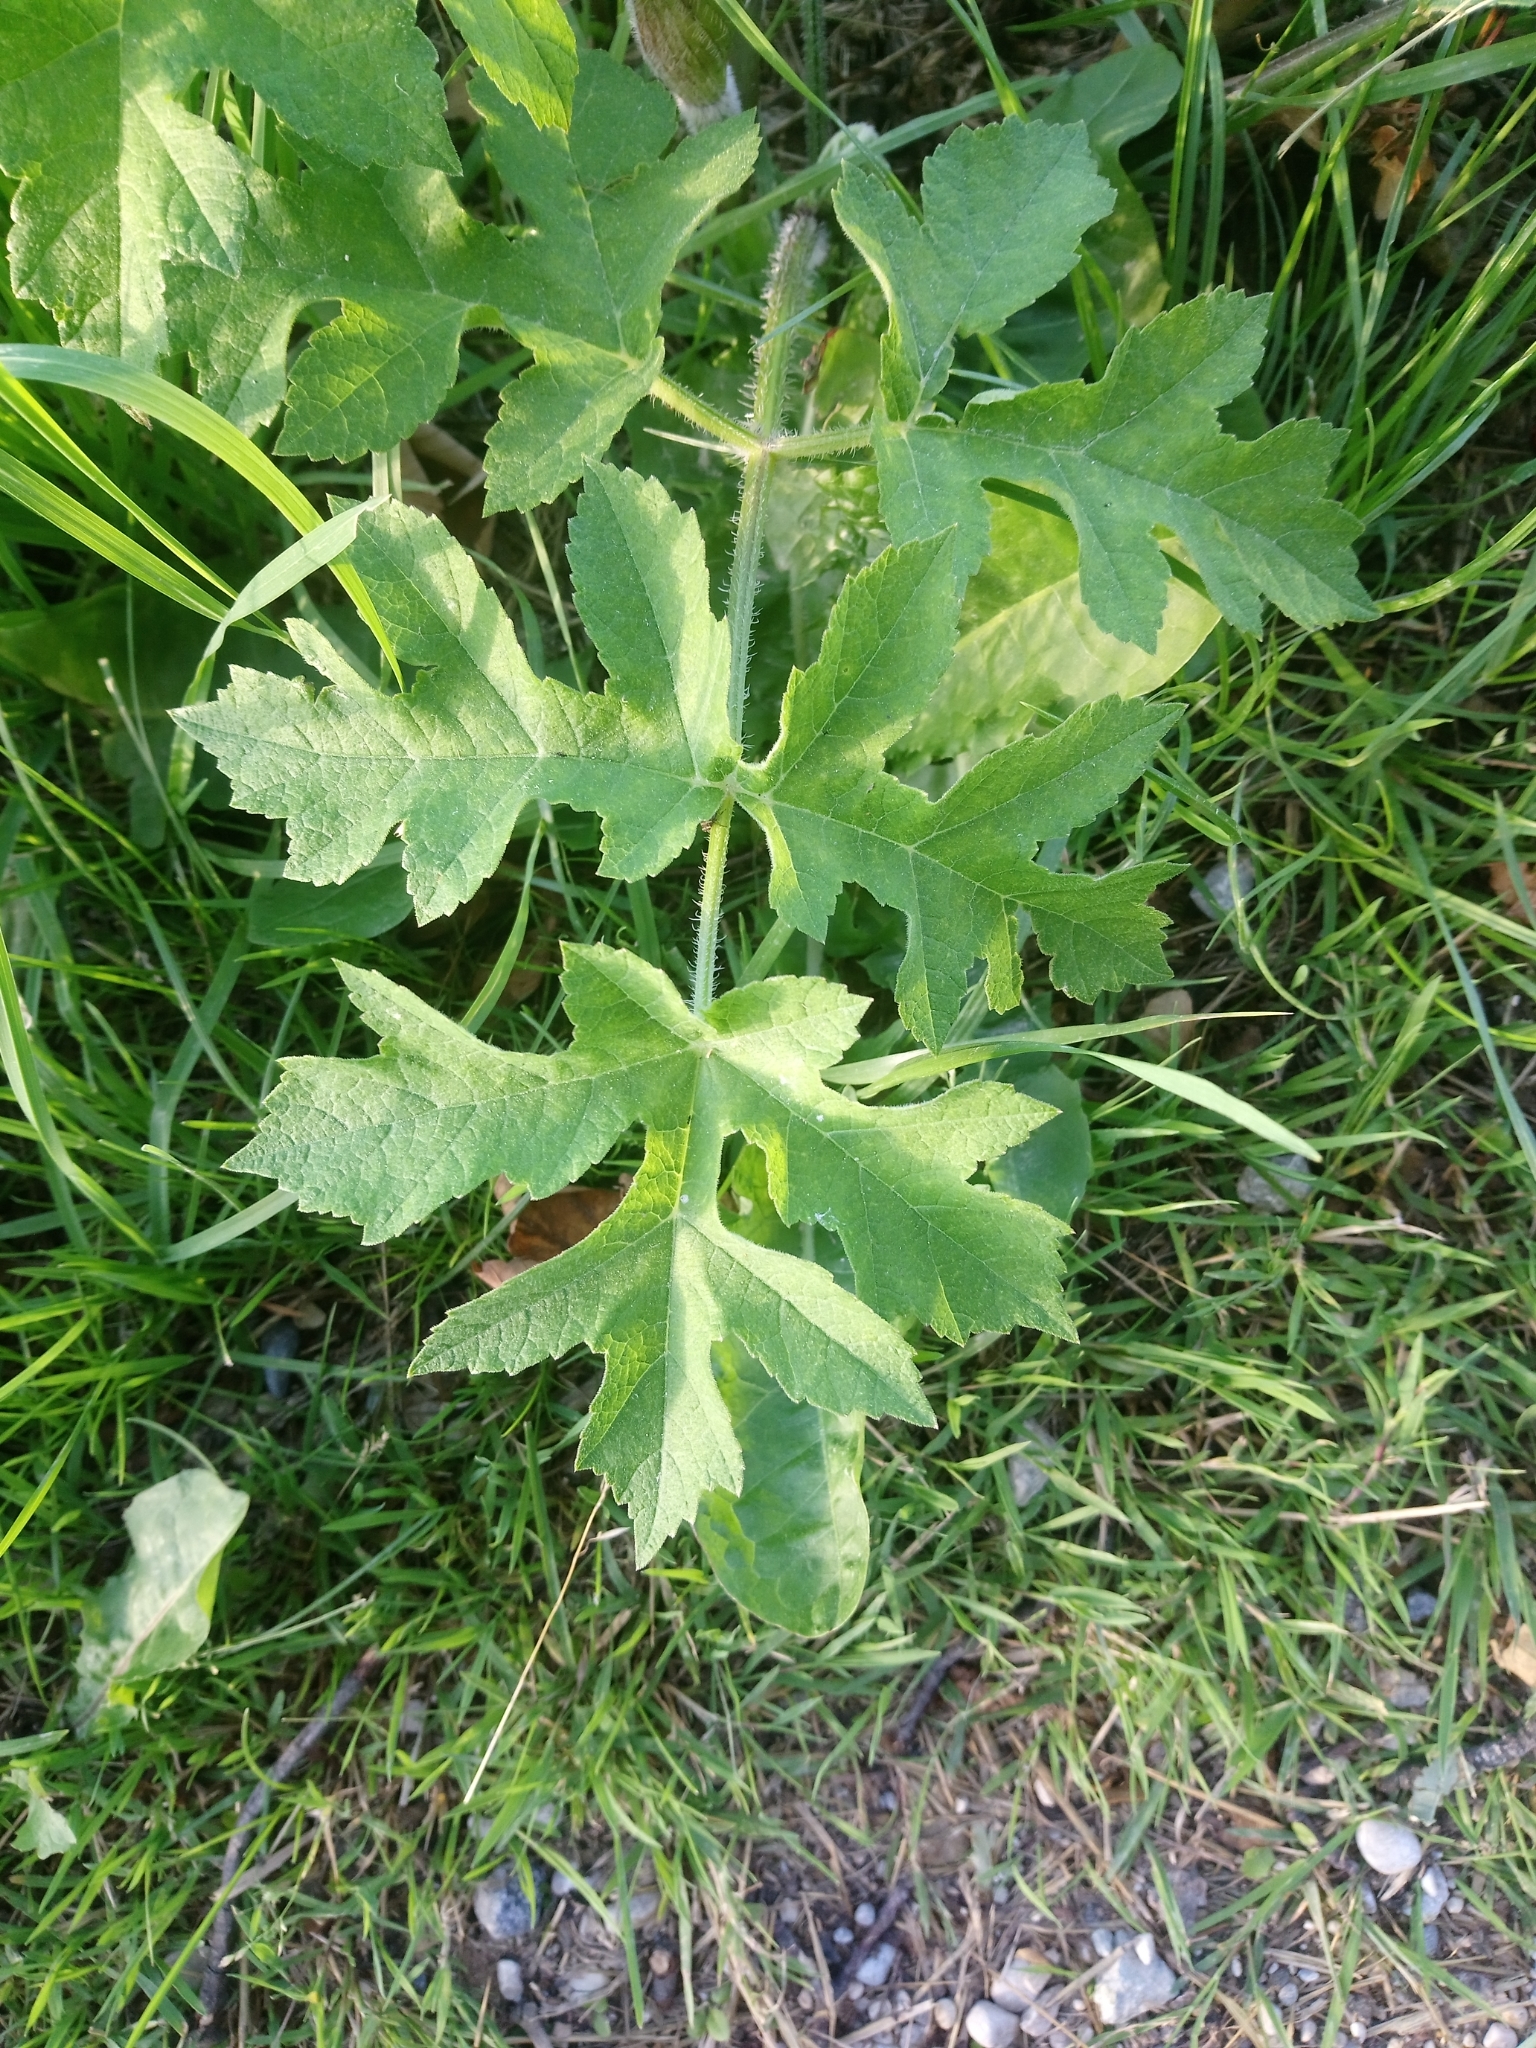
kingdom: Plantae
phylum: Tracheophyta
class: Magnoliopsida
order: Apiales
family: Apiaceae
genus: Heracleum
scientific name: Heracleum sphondylium
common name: Hogweed
